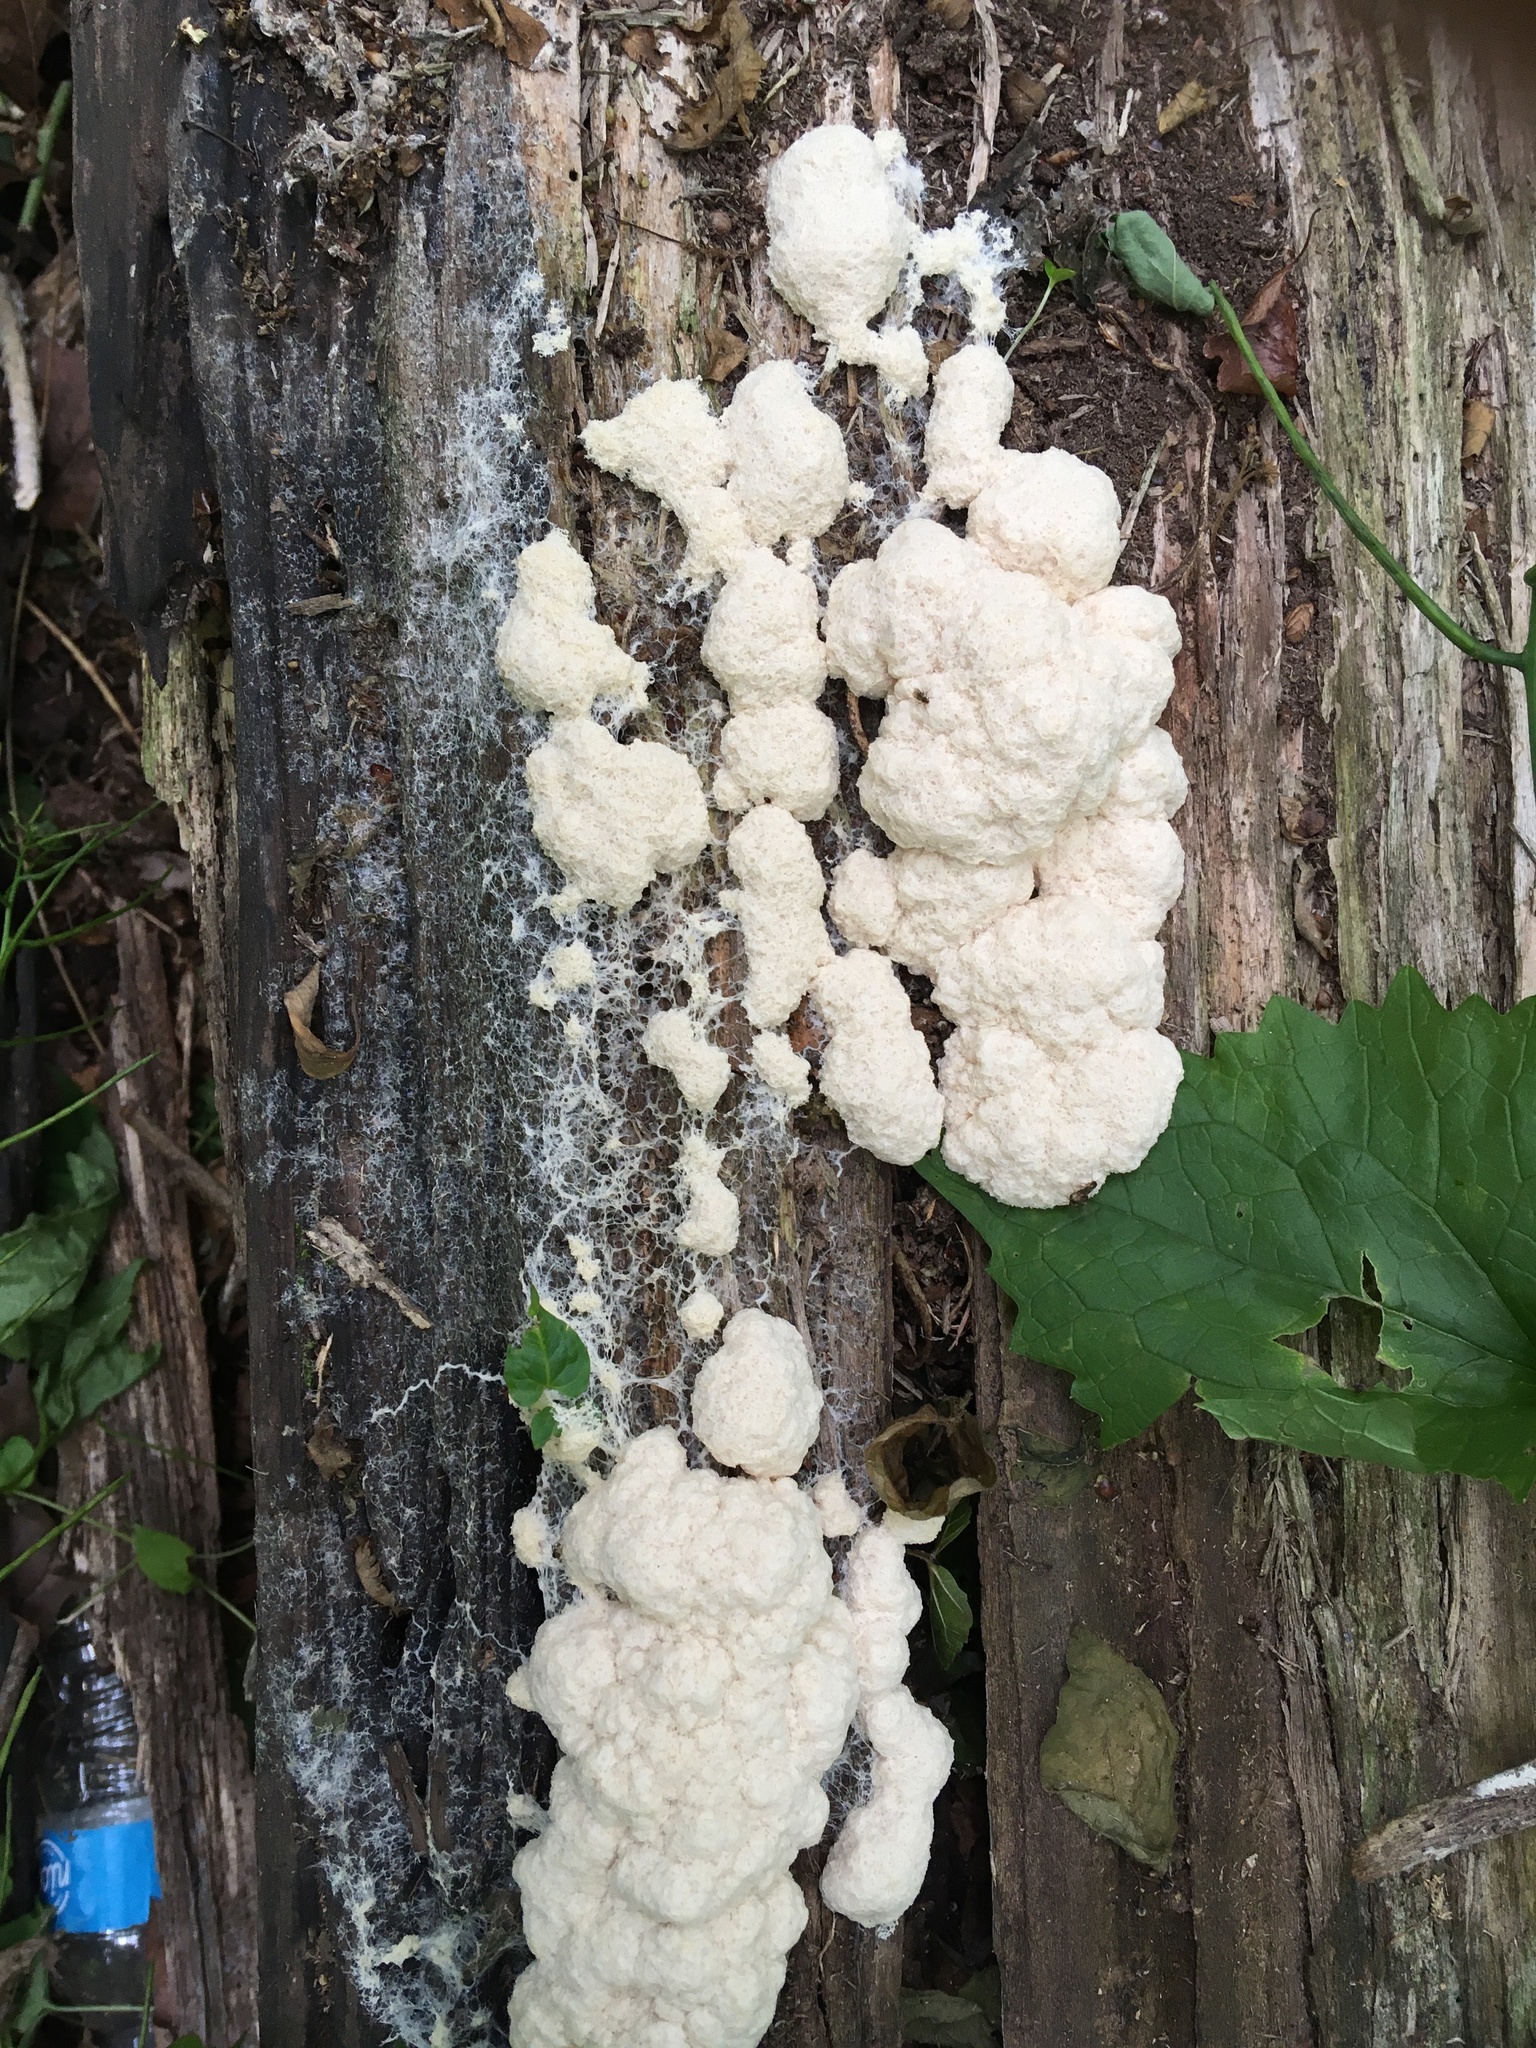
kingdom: Protozoa
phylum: Mycetozoa
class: Myxomycetes
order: Physarales
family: Physaraceae
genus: Fuligo
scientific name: Fuligo septica
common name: Dog vomit slime mold
